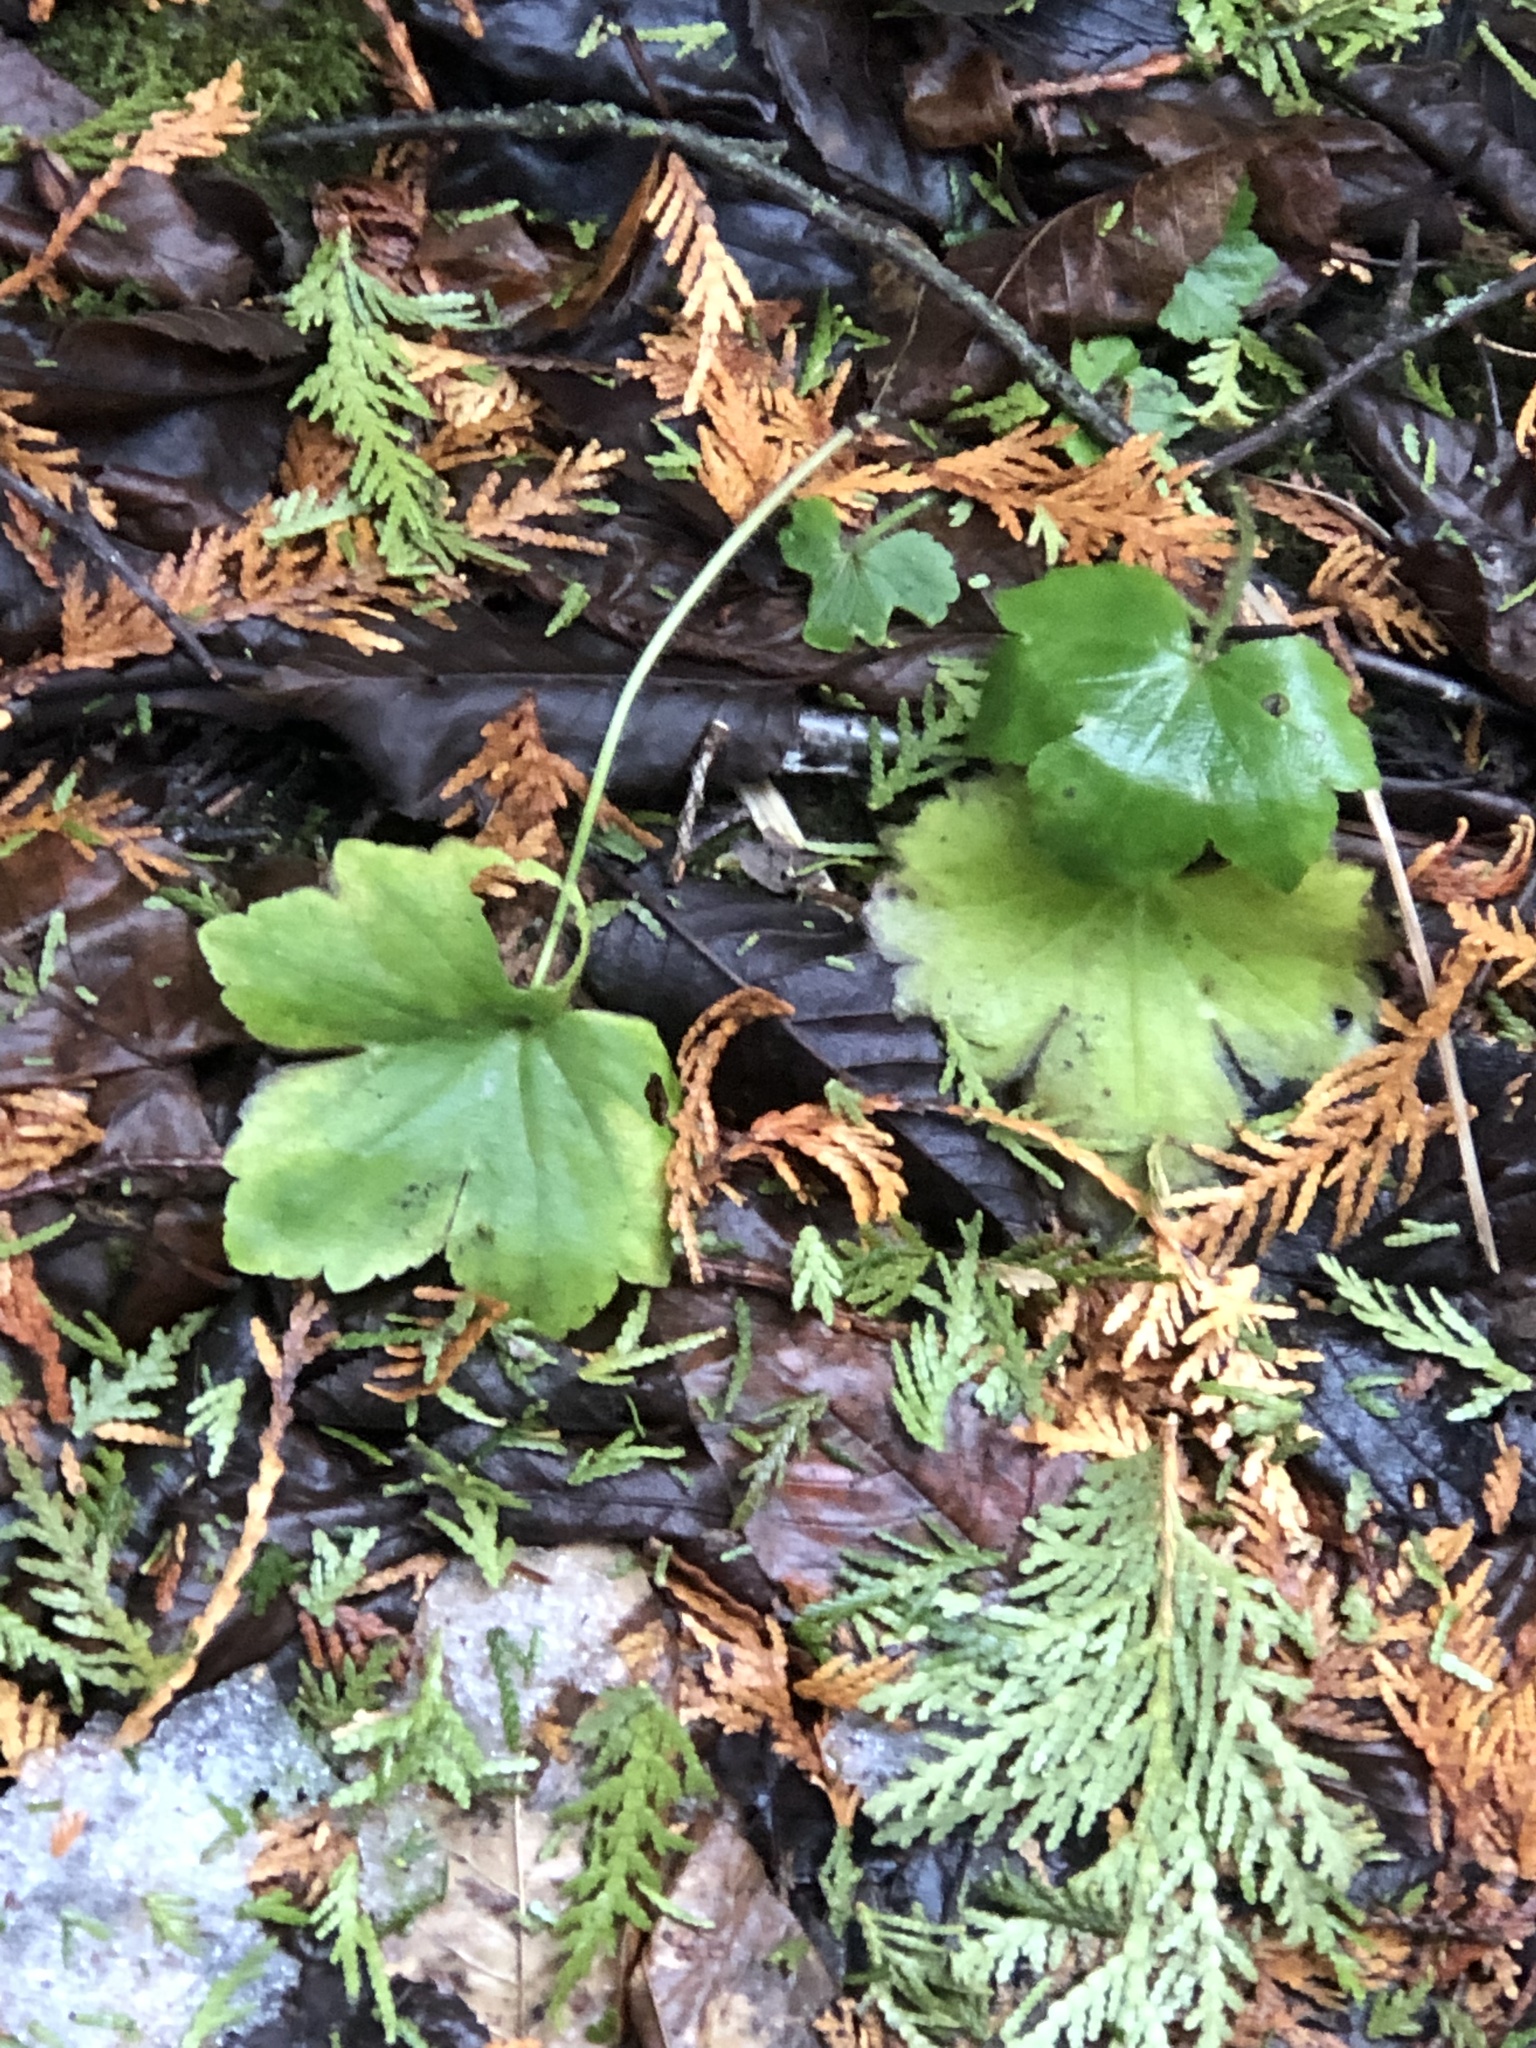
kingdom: Plantae
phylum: Tracheophyta
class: Magnoliopsida
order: Ranunculales
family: Ranunculaceae
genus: Ranunculus
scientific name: Ranunculus recurvatus
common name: Blisterwort
